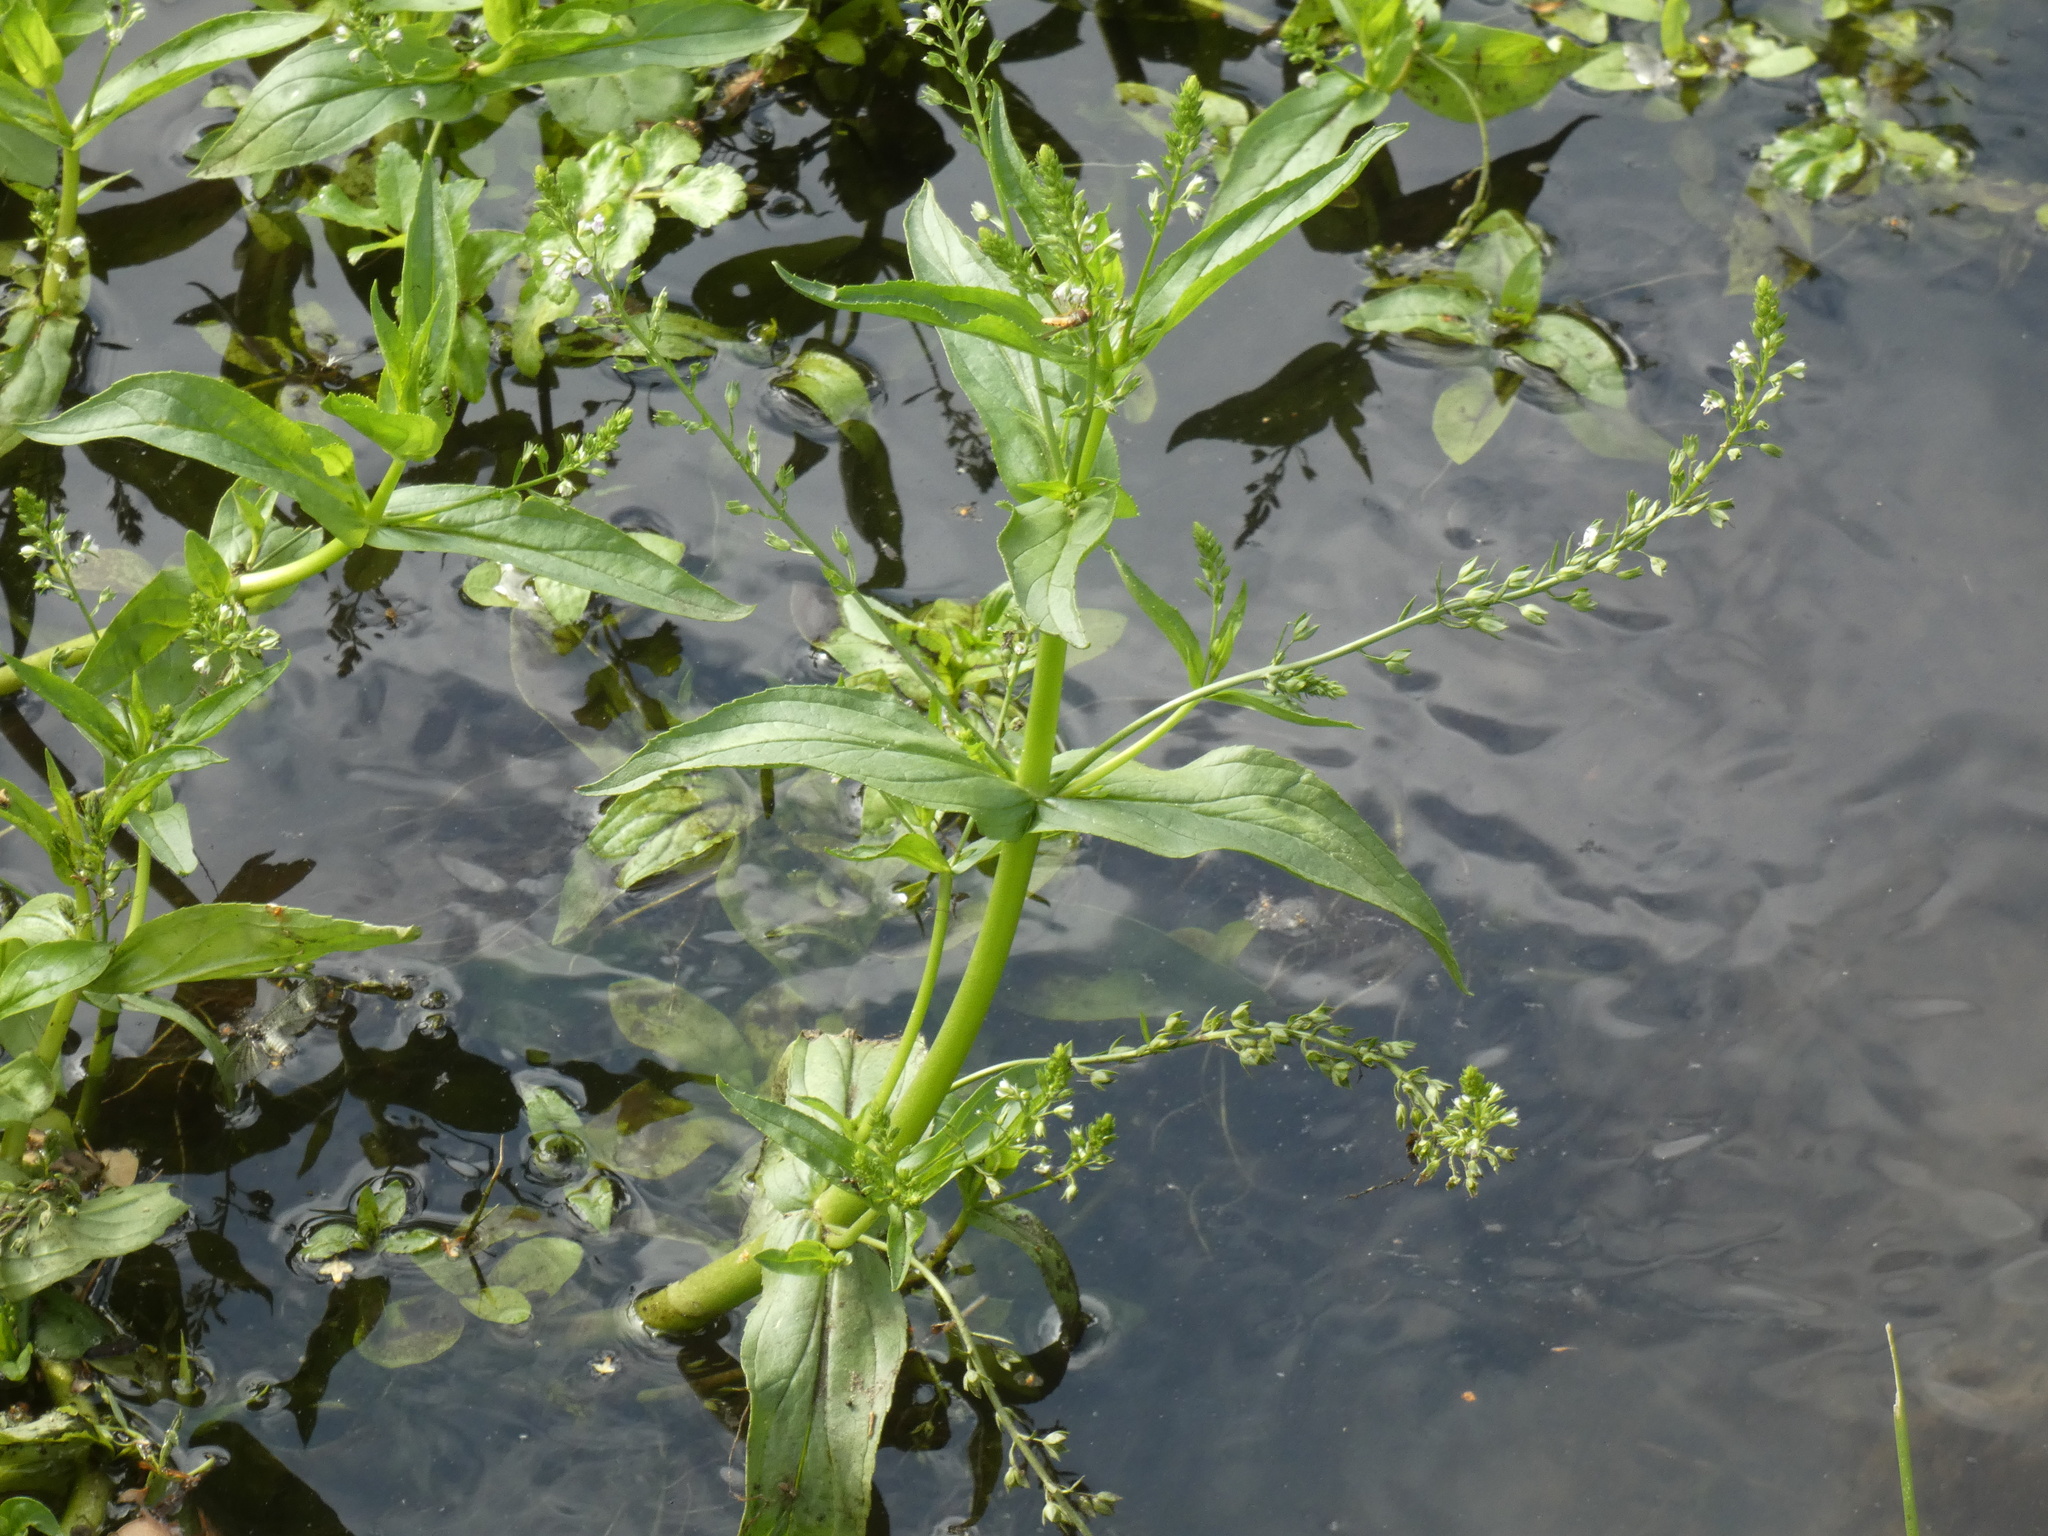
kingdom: Plantae
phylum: Tracheophyta
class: Magnoliopsida
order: Lamiales
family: Plantaginaceae
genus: Veronica
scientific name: Veronica catenata
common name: Pink water-speedwell
